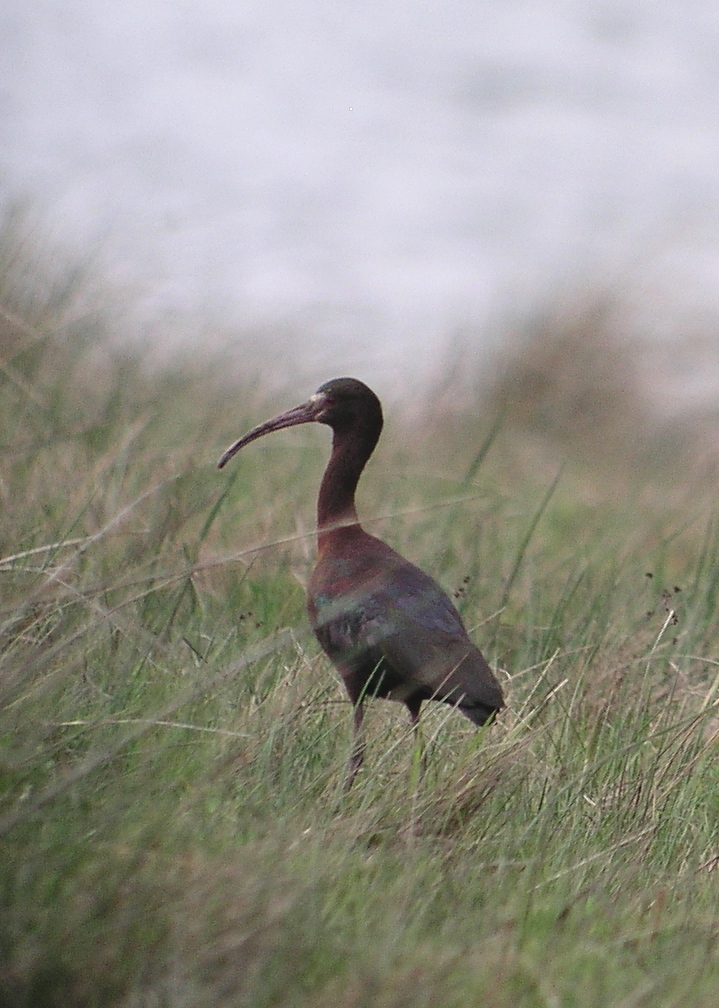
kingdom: Animalia
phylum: Chordata
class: Aves
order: Pelecaniformes
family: Threskiornithidae
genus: Plegadis
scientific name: Plegadis chihi
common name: White-faced ibis
